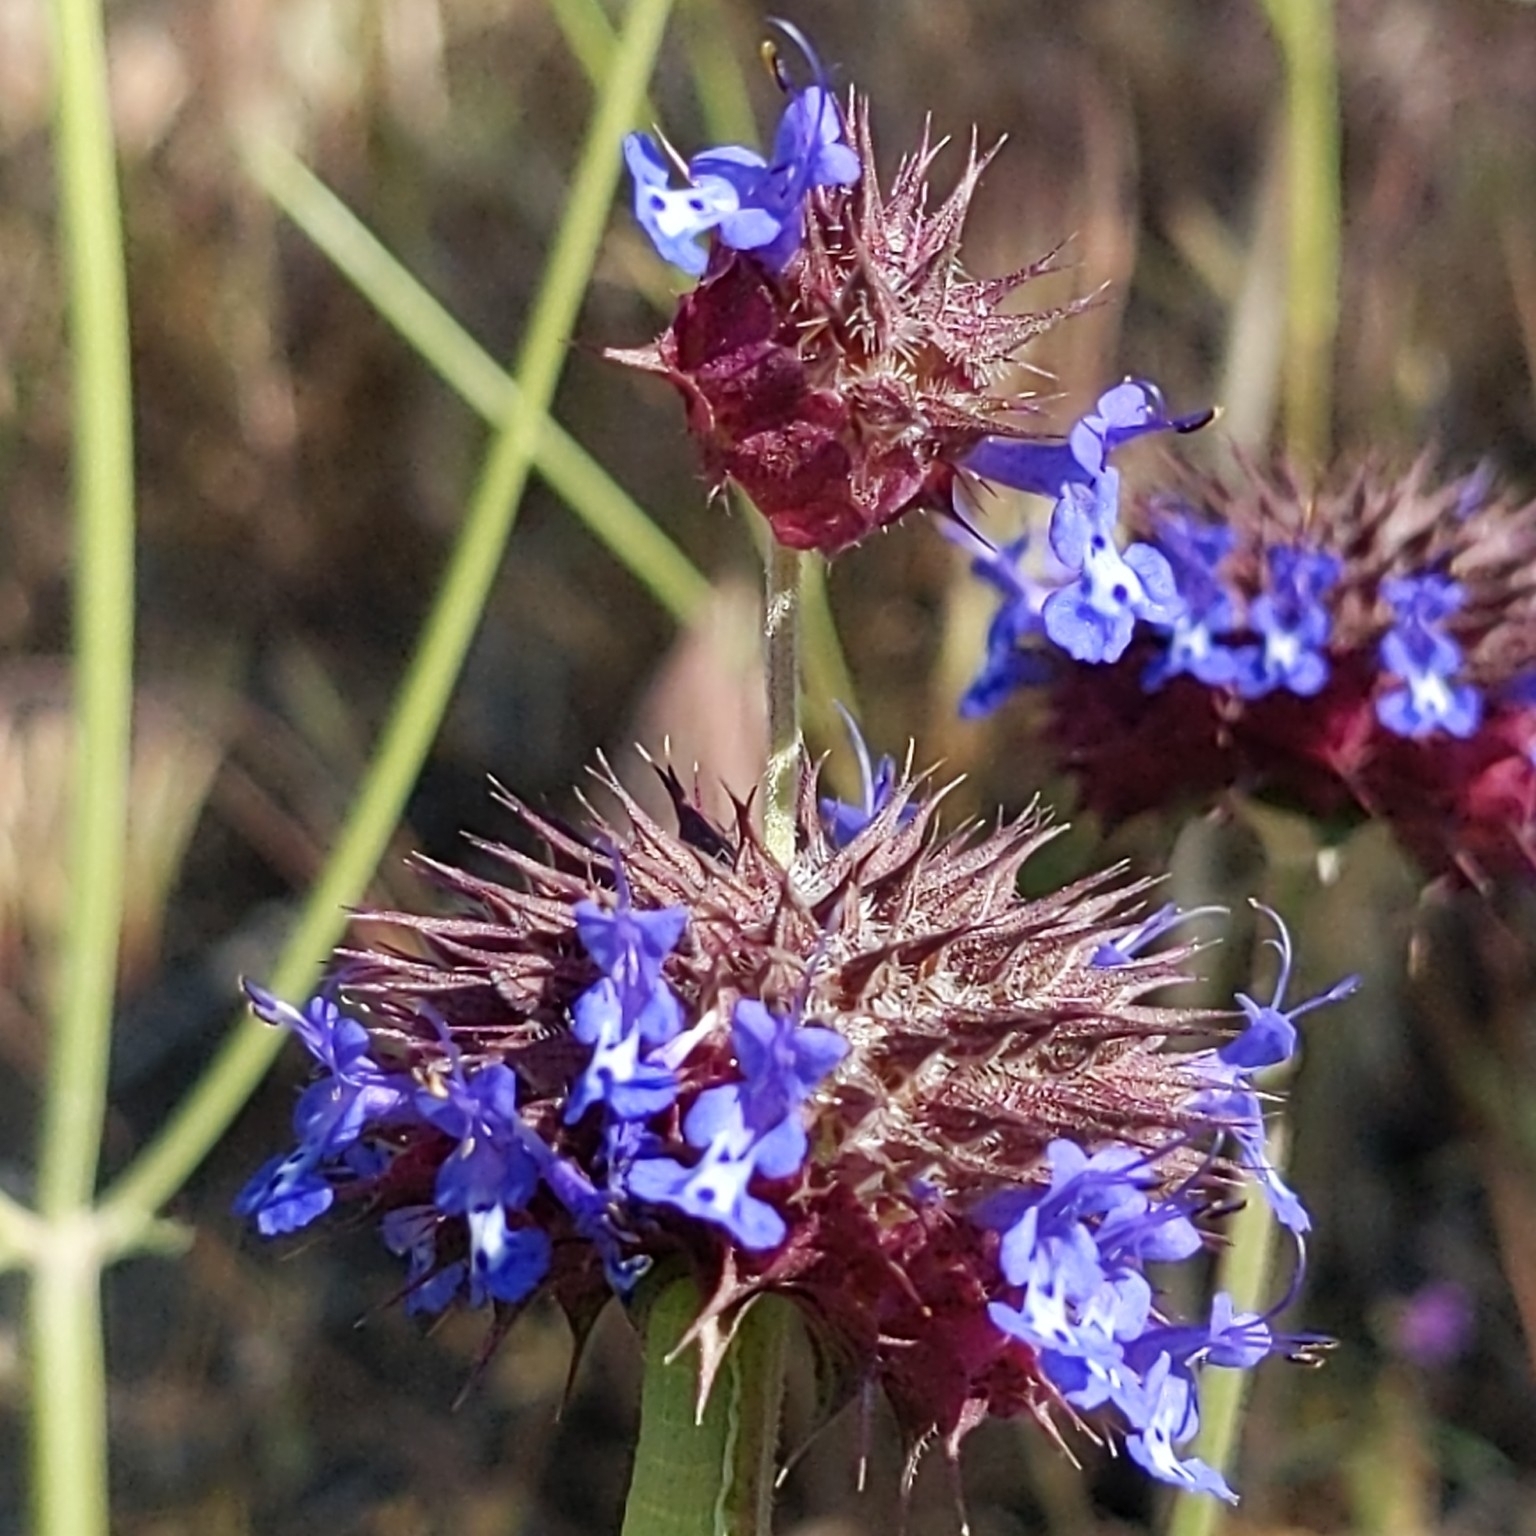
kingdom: Plantae
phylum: Tracheophyta
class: Magnoliopsida
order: Lamiales
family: Lamiaceae
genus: Salvia
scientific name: Salvia columbariae
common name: Chia
